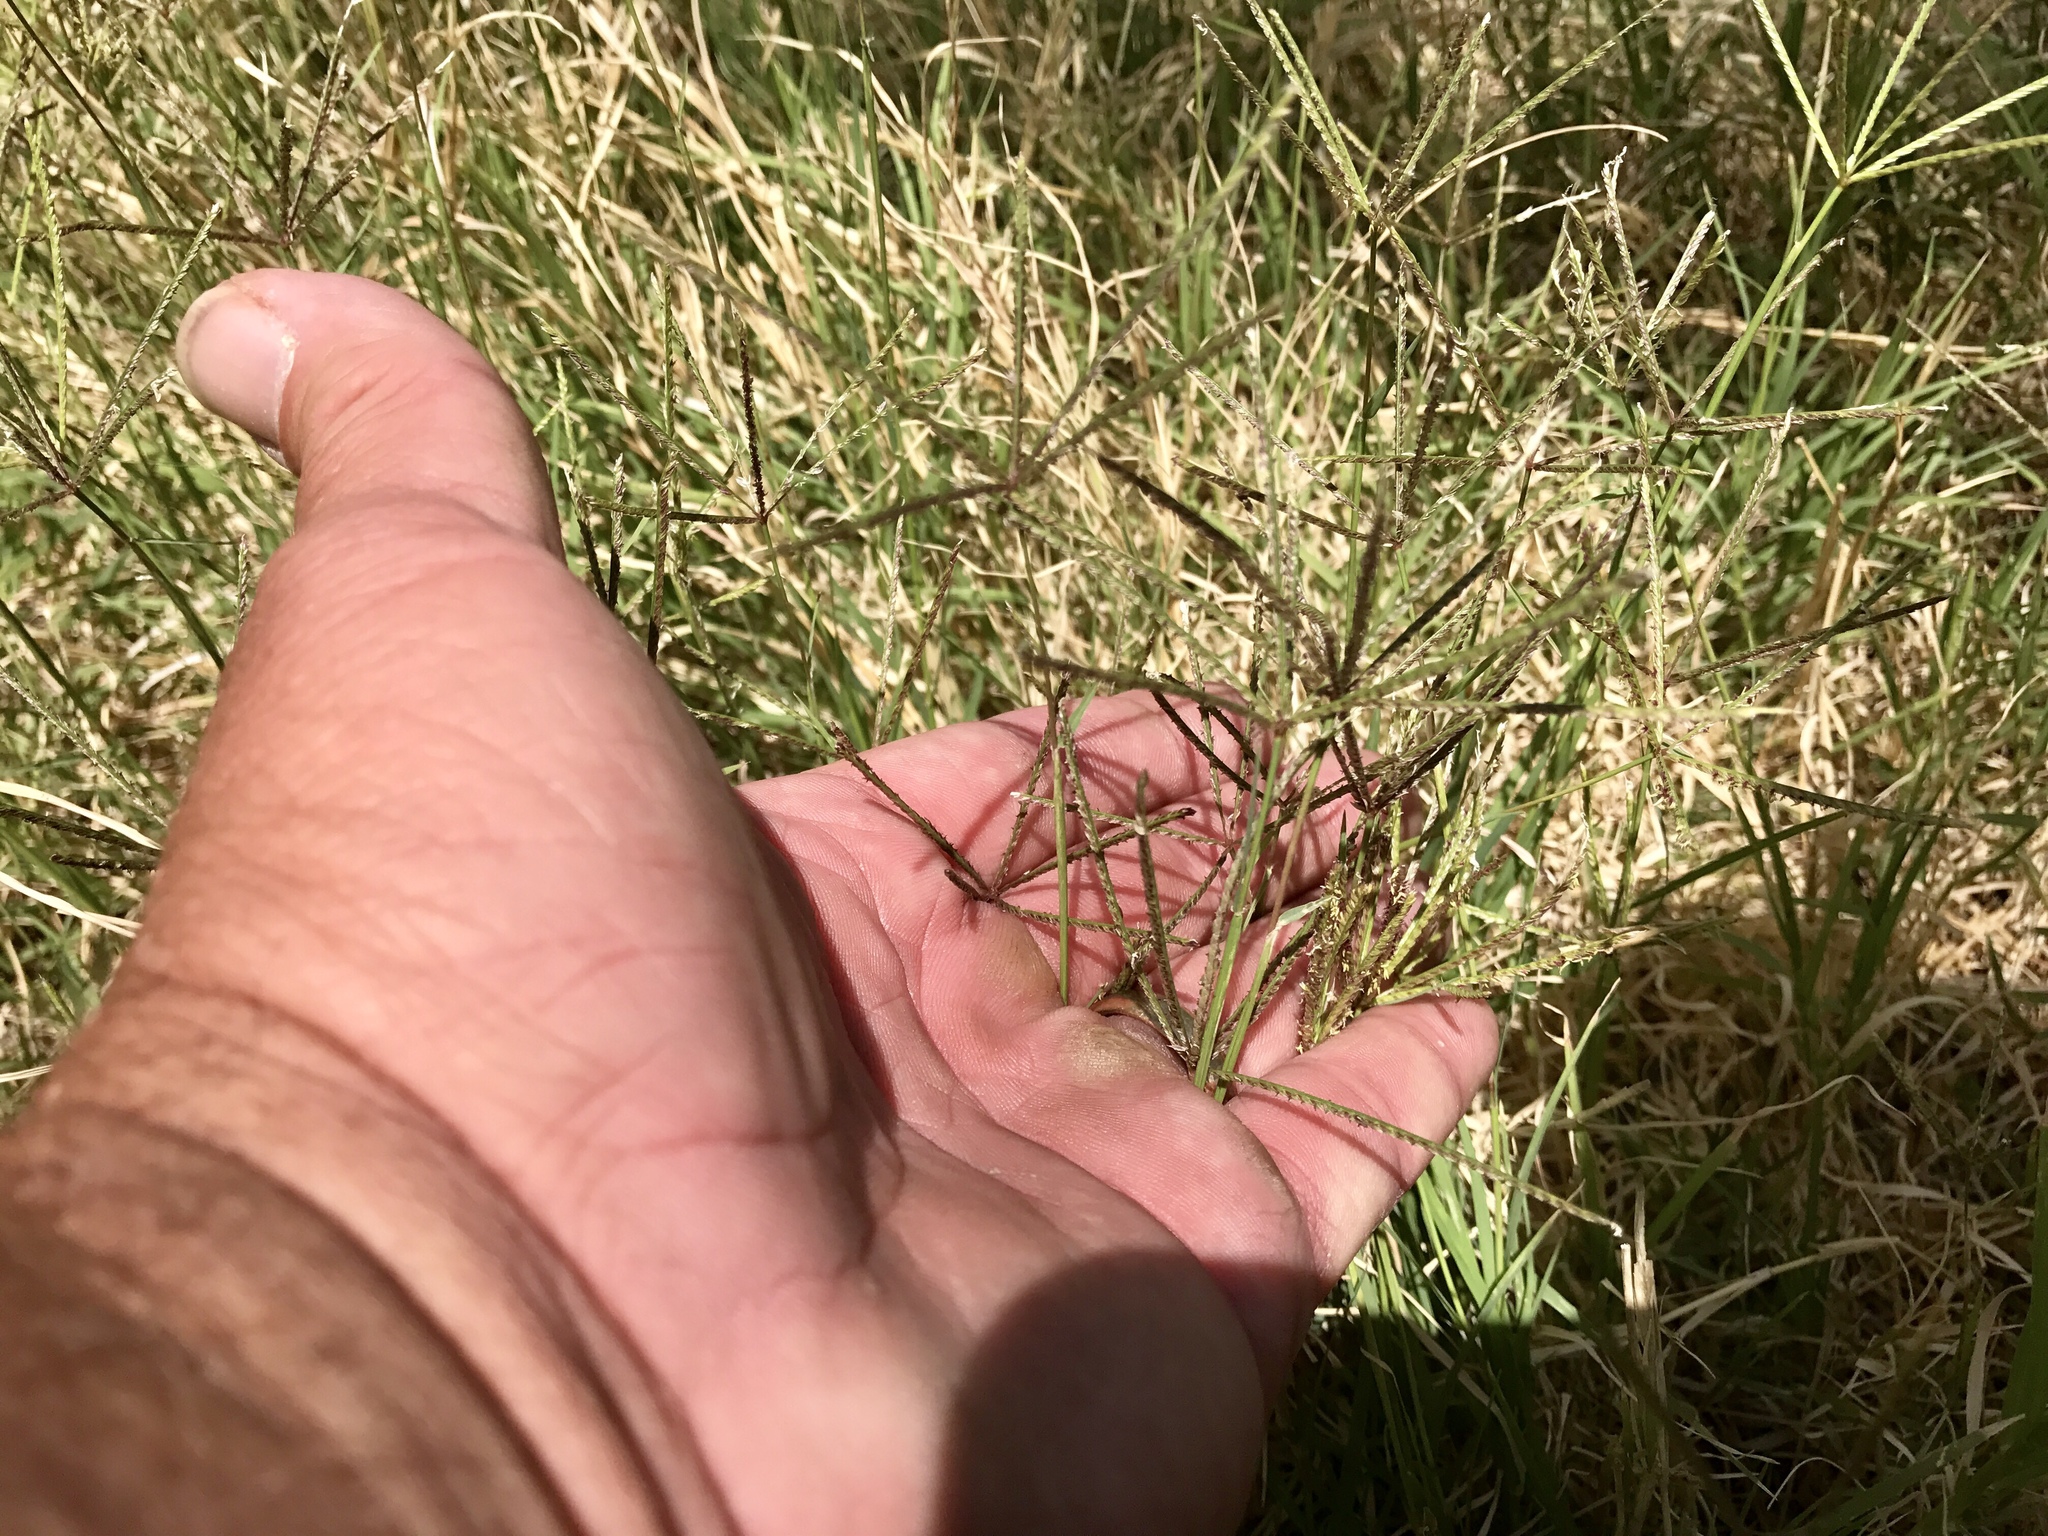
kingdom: Plantae
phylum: Tracheophyta
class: Liliopsida
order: Poales
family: Poaceae
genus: Cynodon
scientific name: Cynodon dactylon
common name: Bermuda grass
